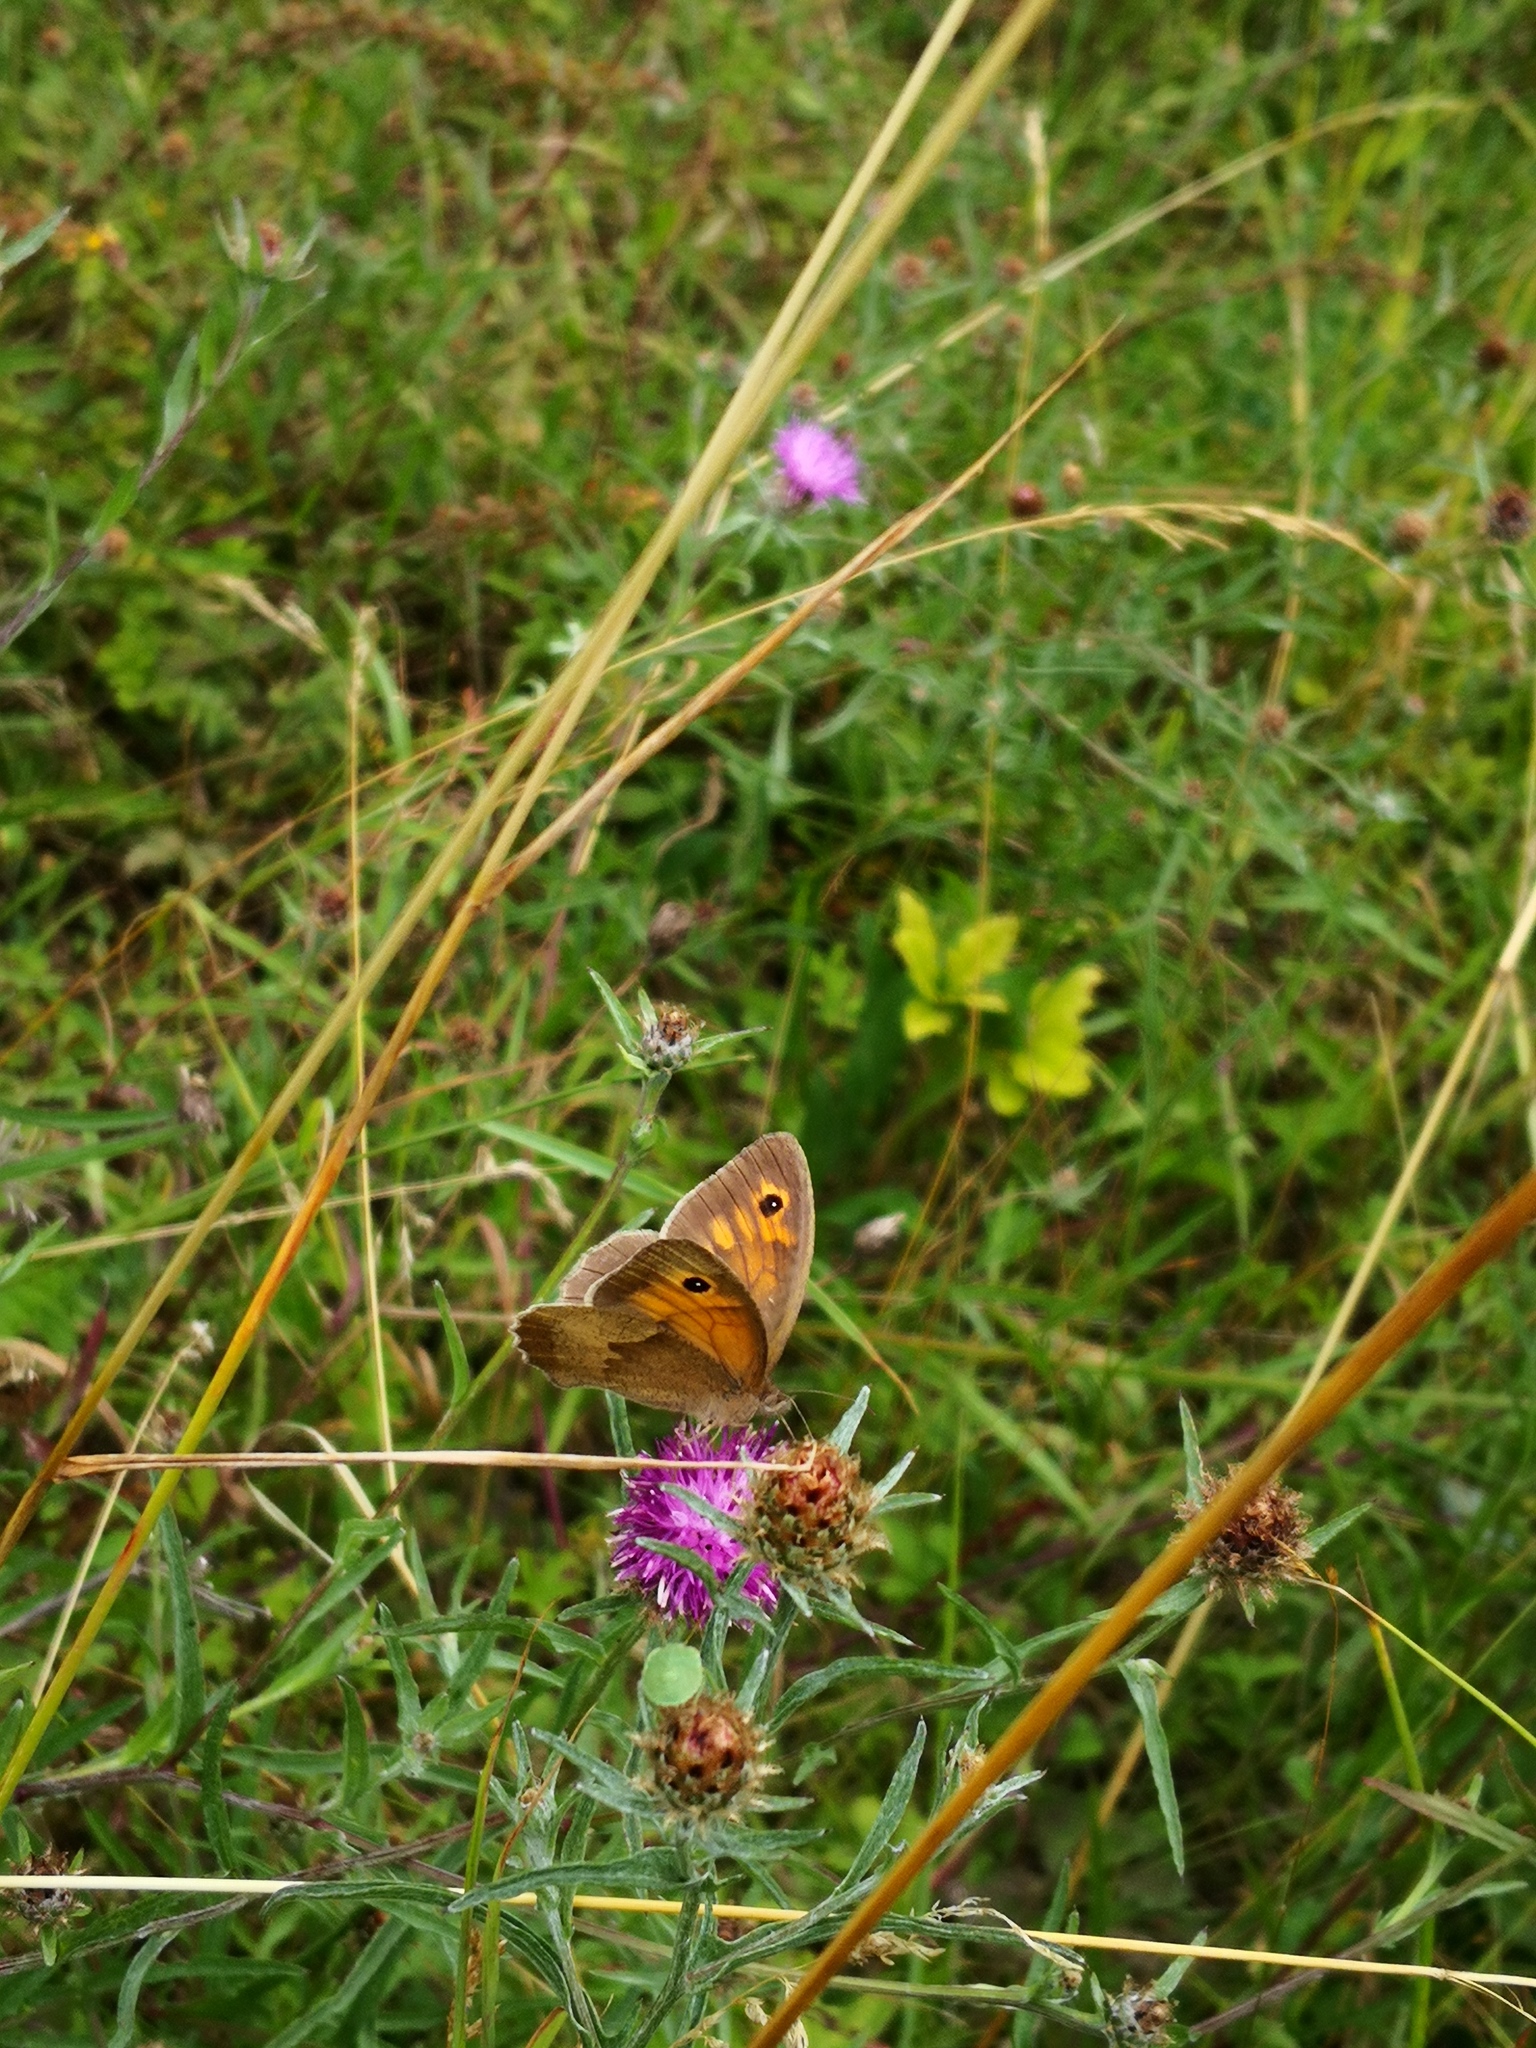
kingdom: Animalia
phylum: Arthropoda
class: Insecta
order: Lepidoptera
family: Nymphalidae
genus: Maniola
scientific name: Maniola jurtina
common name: Meadow brown
